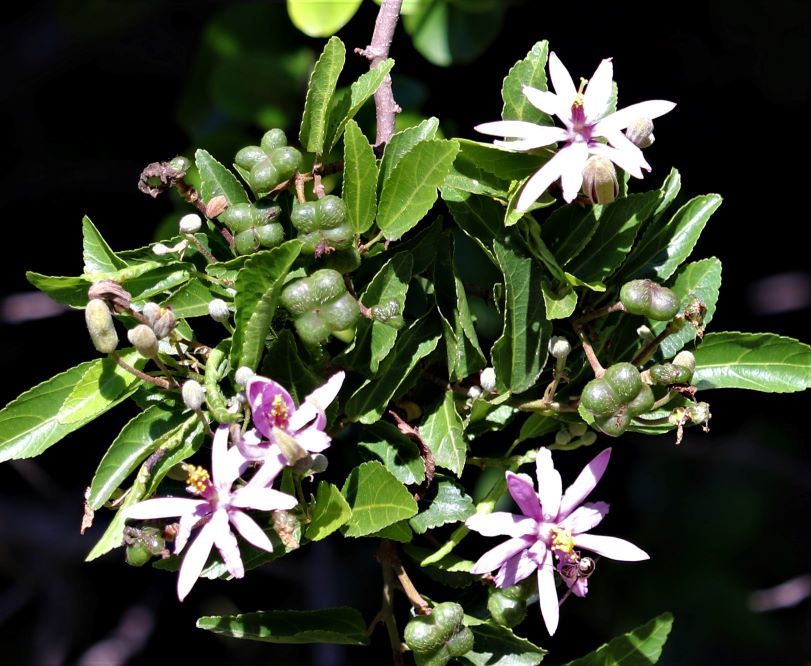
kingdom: Plantae
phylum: Tracheophyta
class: Magnoliopsida
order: Malvales
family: Malvaceae
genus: Grewia
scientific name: Grewia occidentalis
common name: Crossberry
